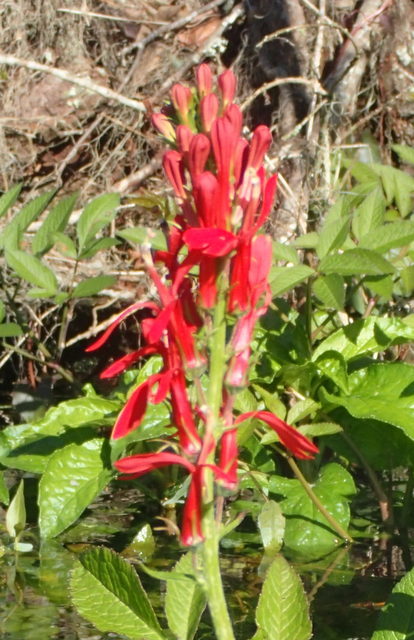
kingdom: Plantae
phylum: Tracheophyta
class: Magnoliopsida
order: Asterales
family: Campanulaceae
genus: Lobelia
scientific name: Lobelia cardinalis
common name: Cardinal flower
